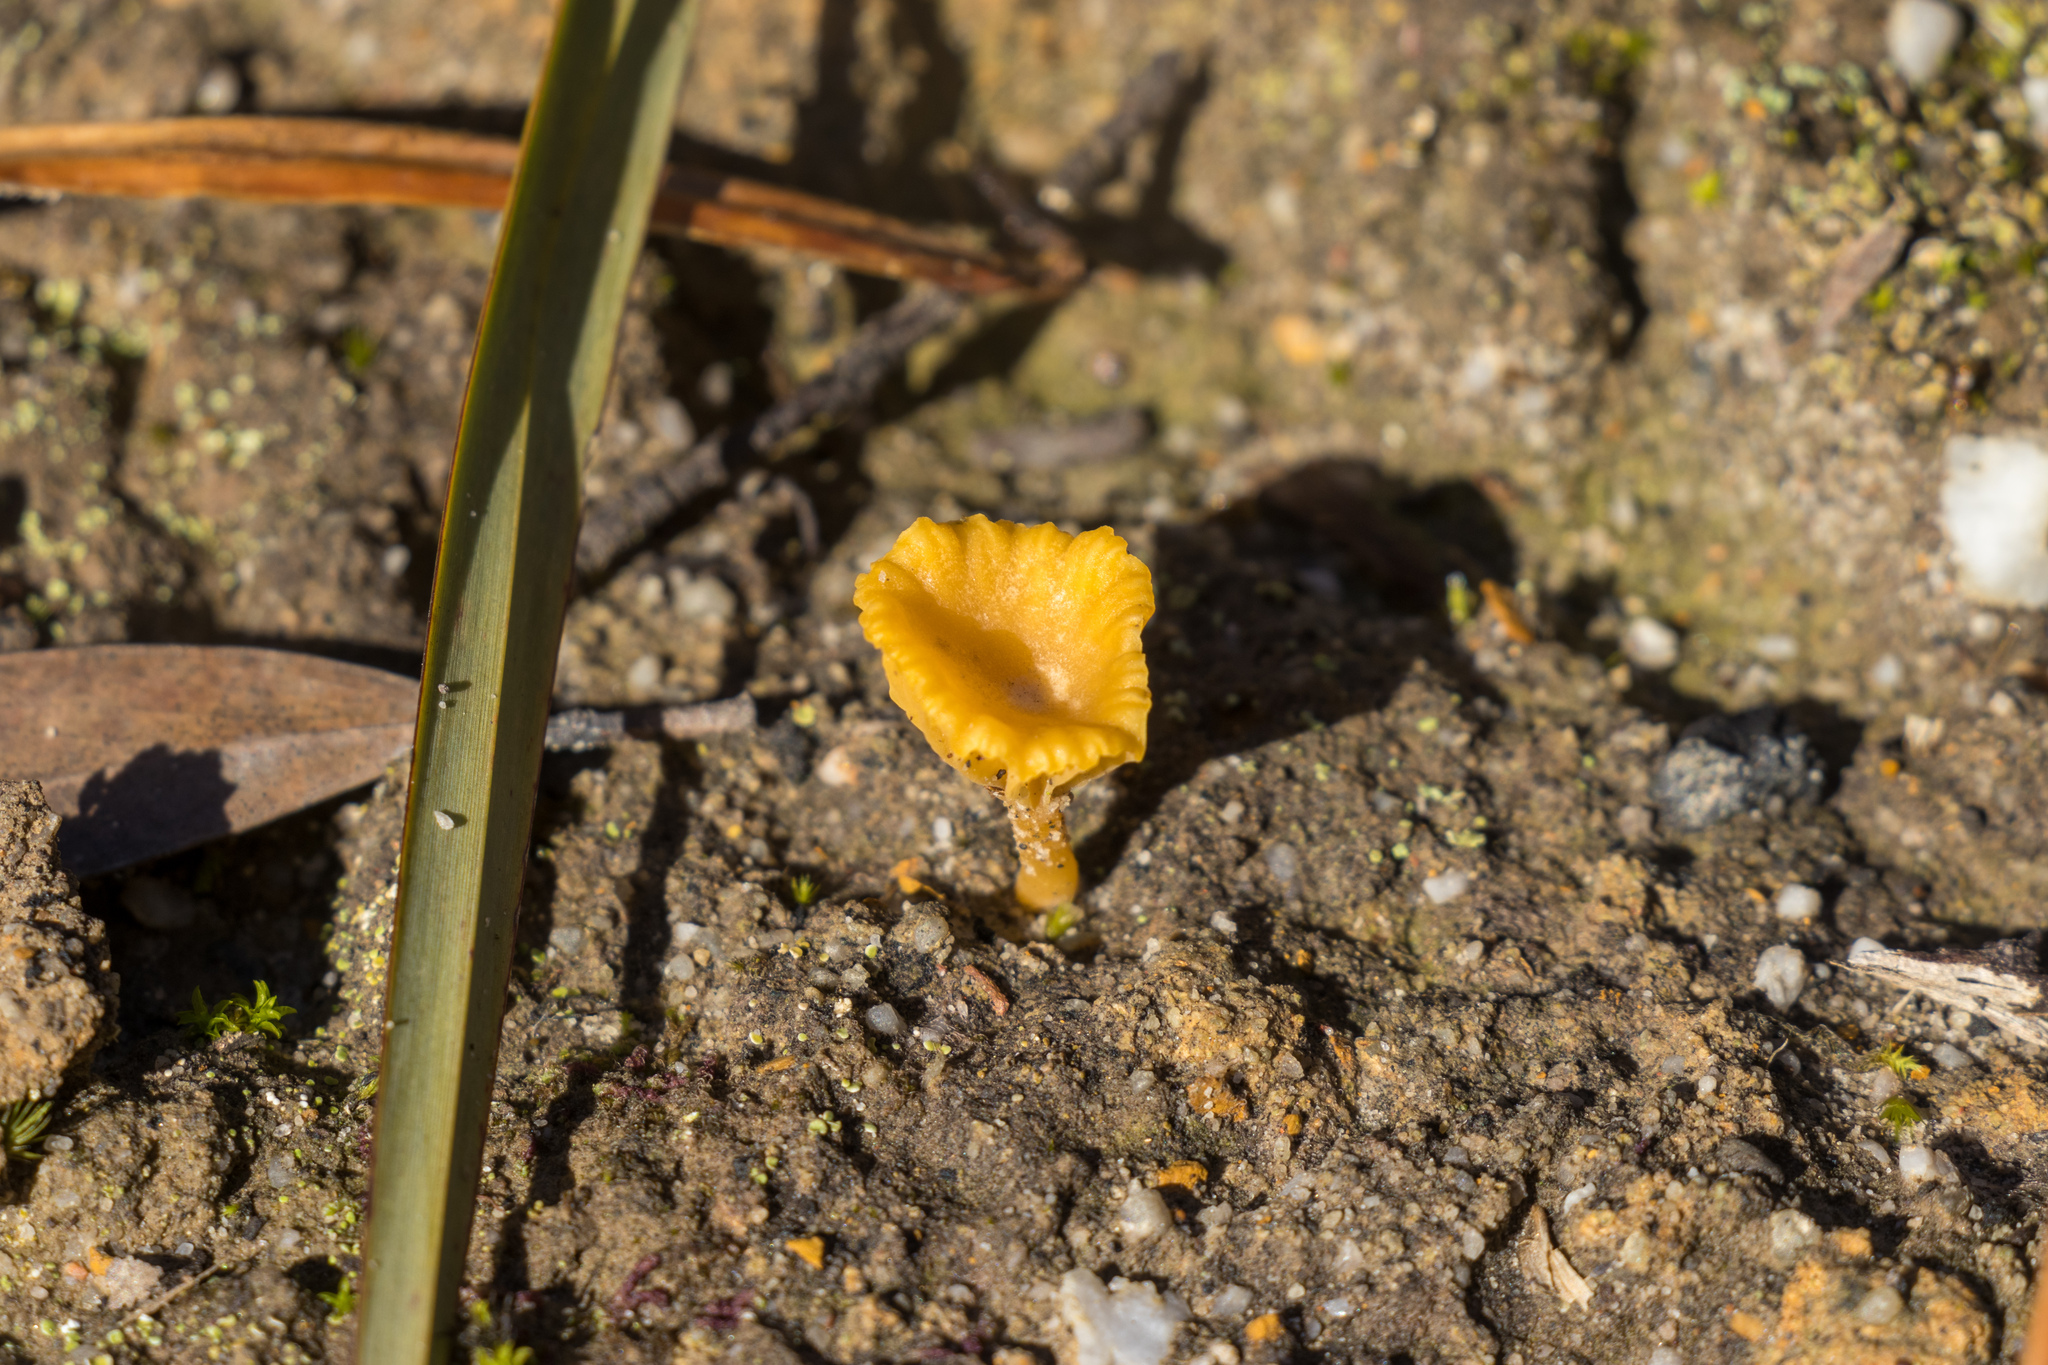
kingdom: Fungi
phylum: Basidiomycota
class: Agaricomycetes
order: Agaricales
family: Hygrophoraceae
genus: Lichenomphalia
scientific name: Lichenomphalia chromacea
